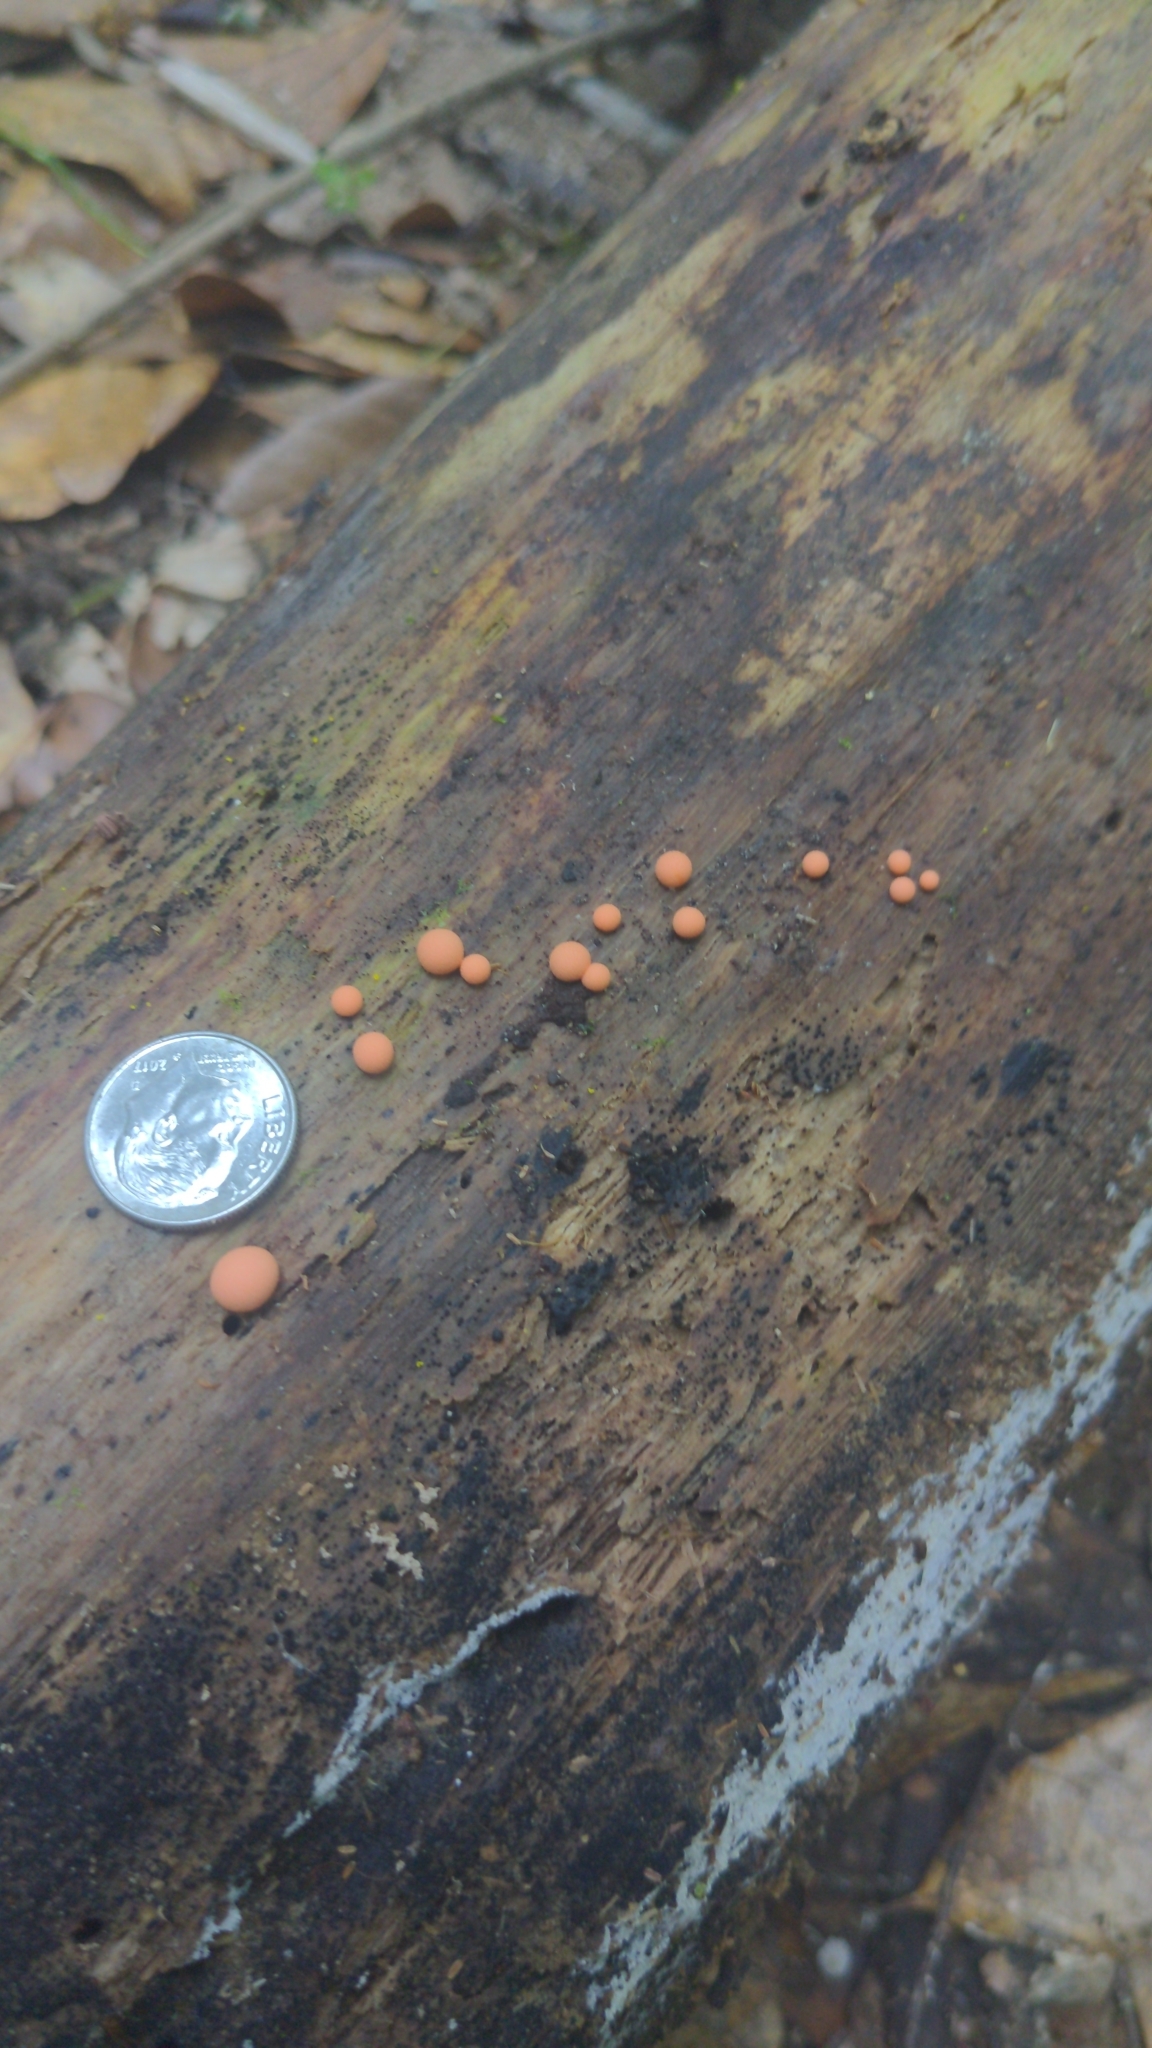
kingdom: Protozoa
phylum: Mycetozoa
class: Myxomycetes
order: Cribrariales
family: Tubiferaceae
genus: Lycogala
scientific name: Lycogala epidendrum
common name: Wolf's milk
